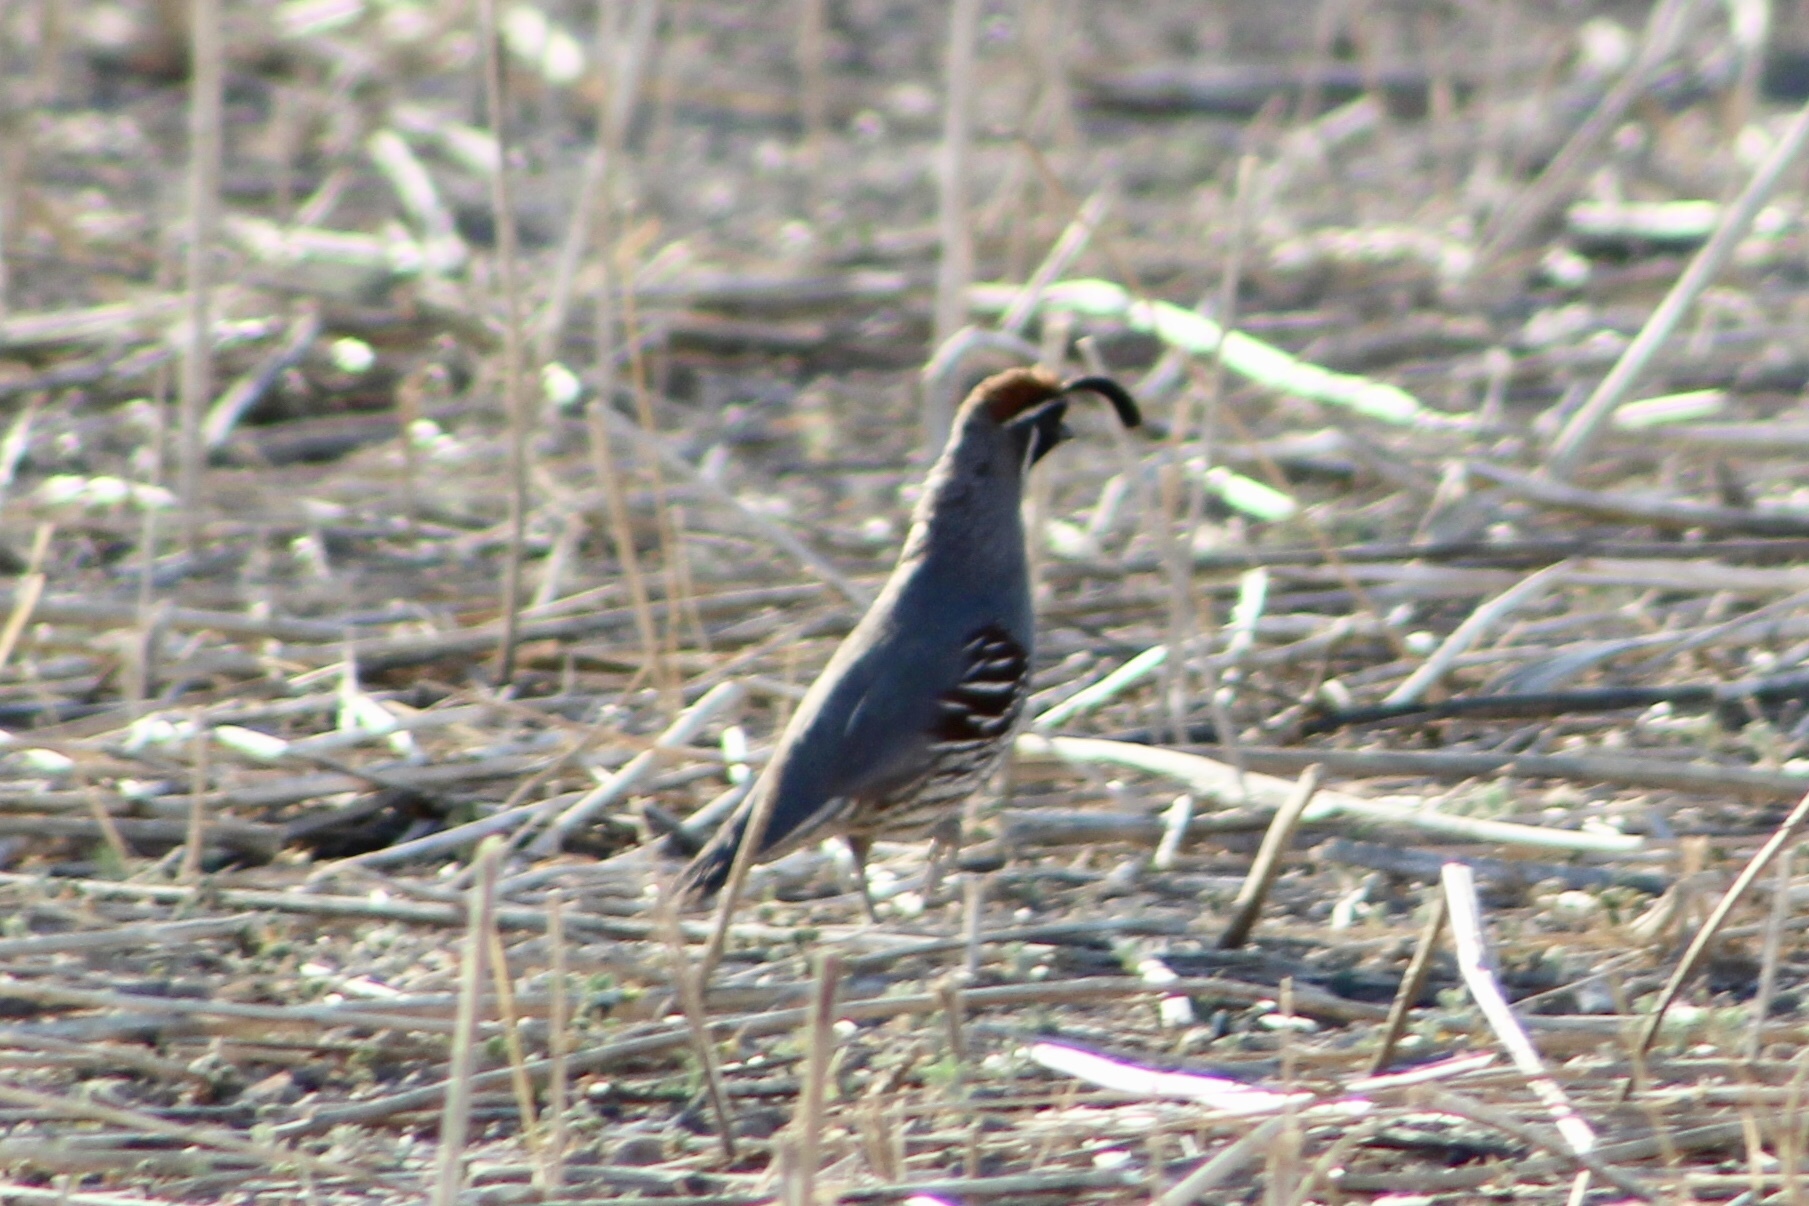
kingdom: Animalia
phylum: Chordata
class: Aves
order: Galliformes
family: Odontophoridae
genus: Callipepla
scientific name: Callipepla gambelii
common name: Gambel's quail
